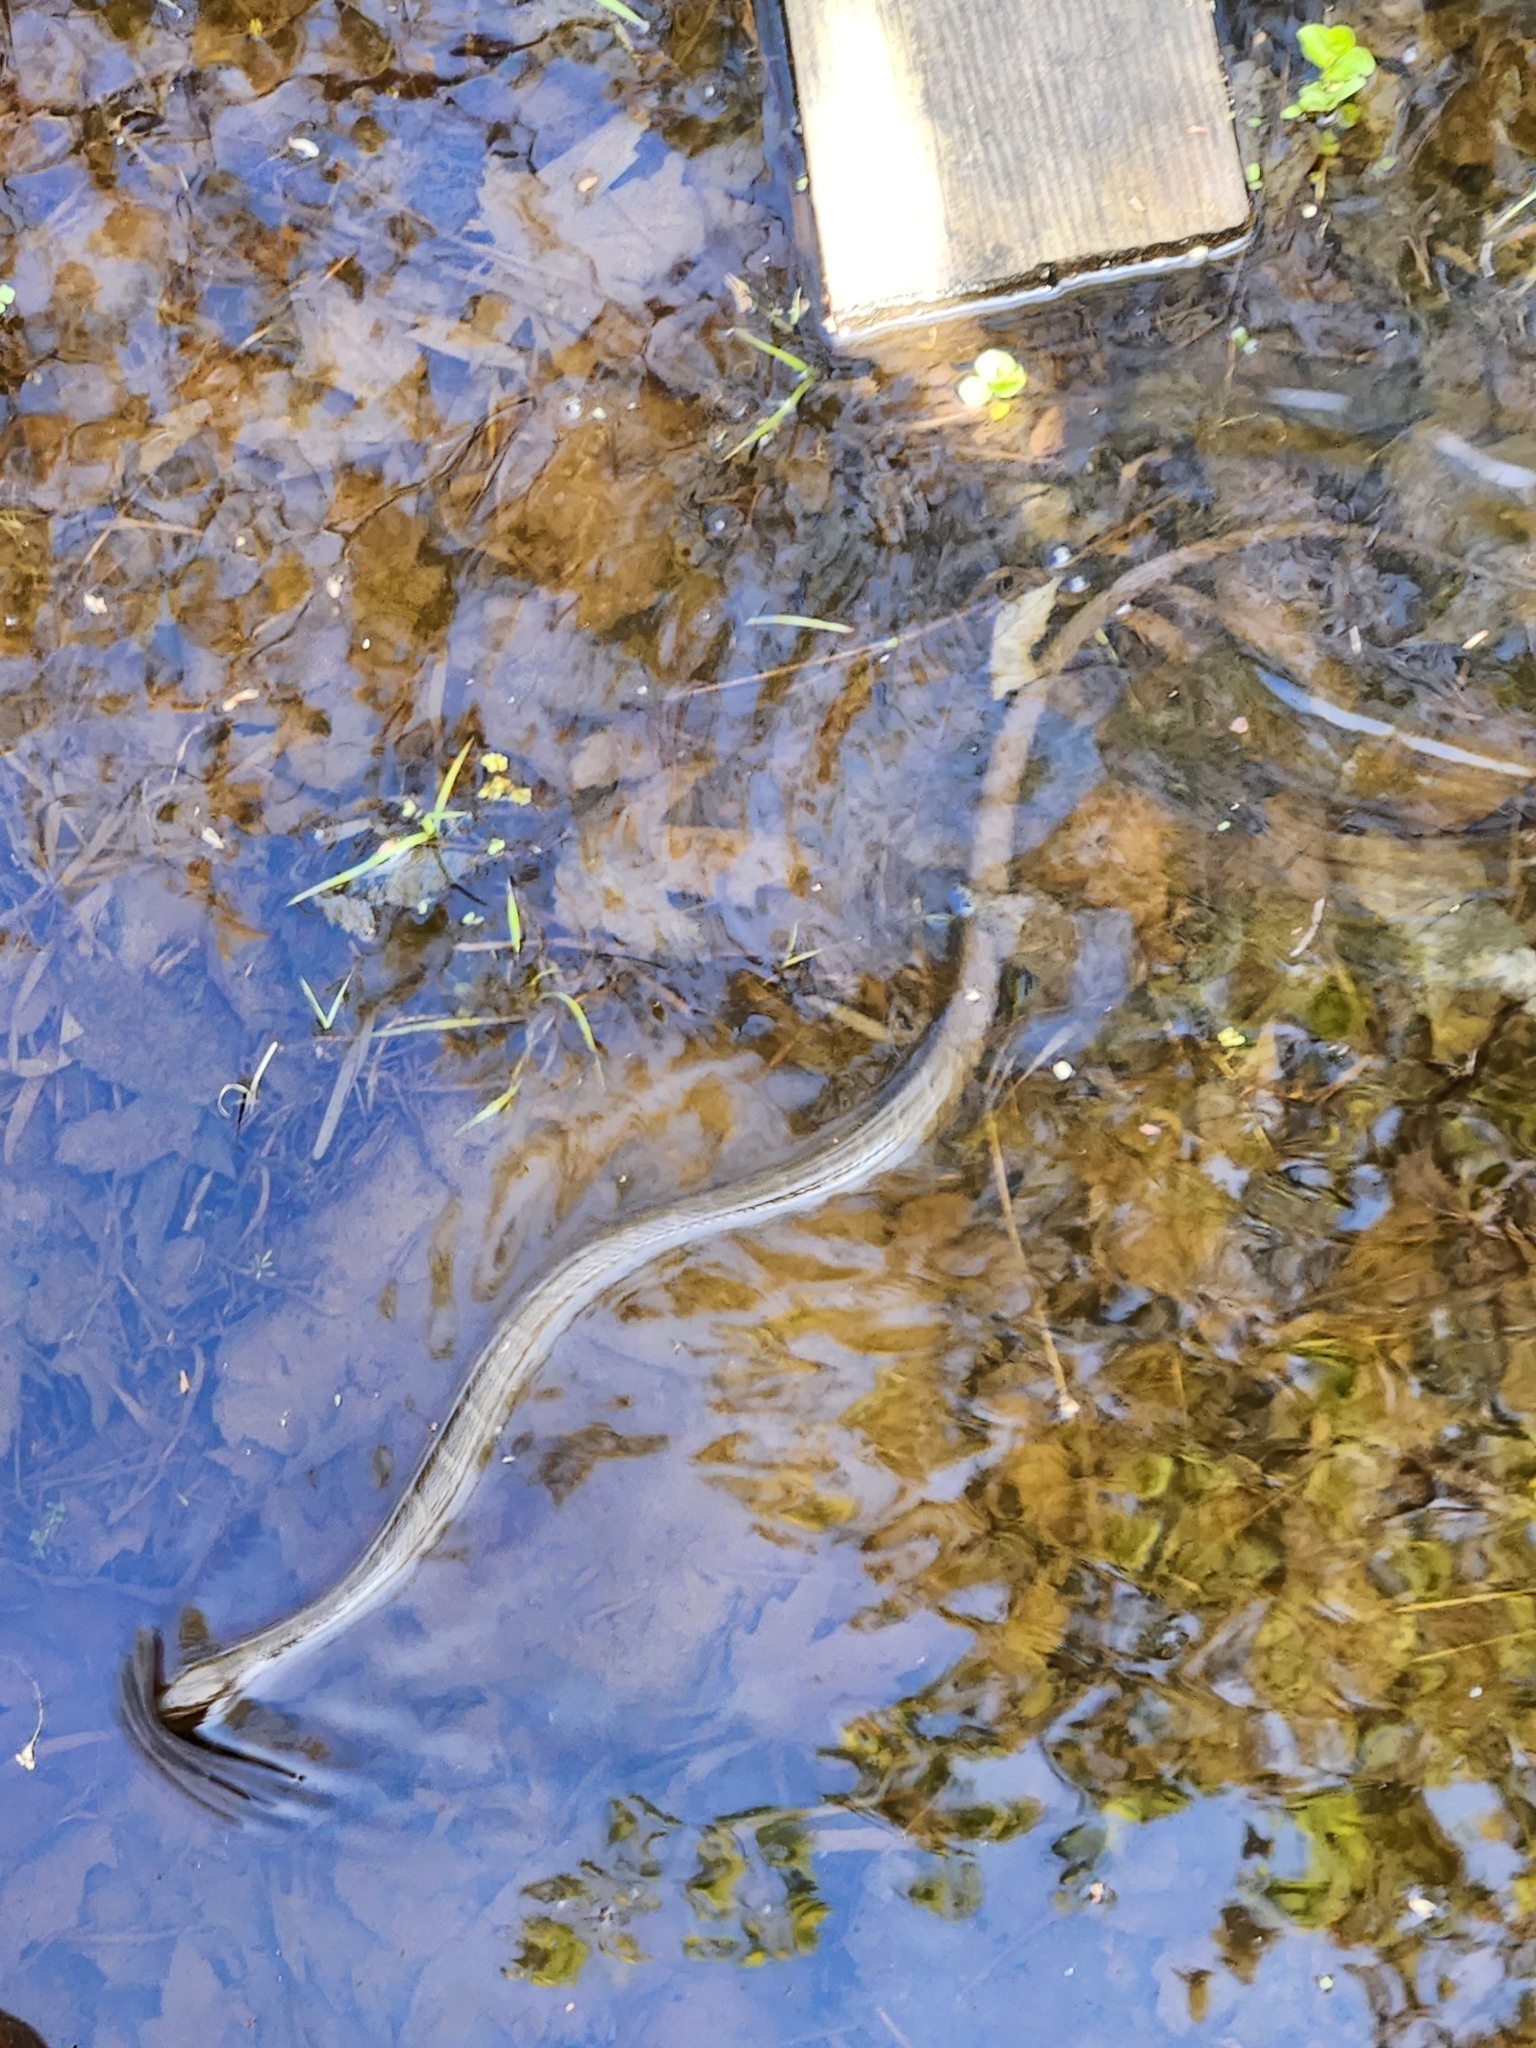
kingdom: Animalia
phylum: Chordata
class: Squamata
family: Colubridae
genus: Nerodia
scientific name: Nerodia sipedon
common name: Northern water snake
